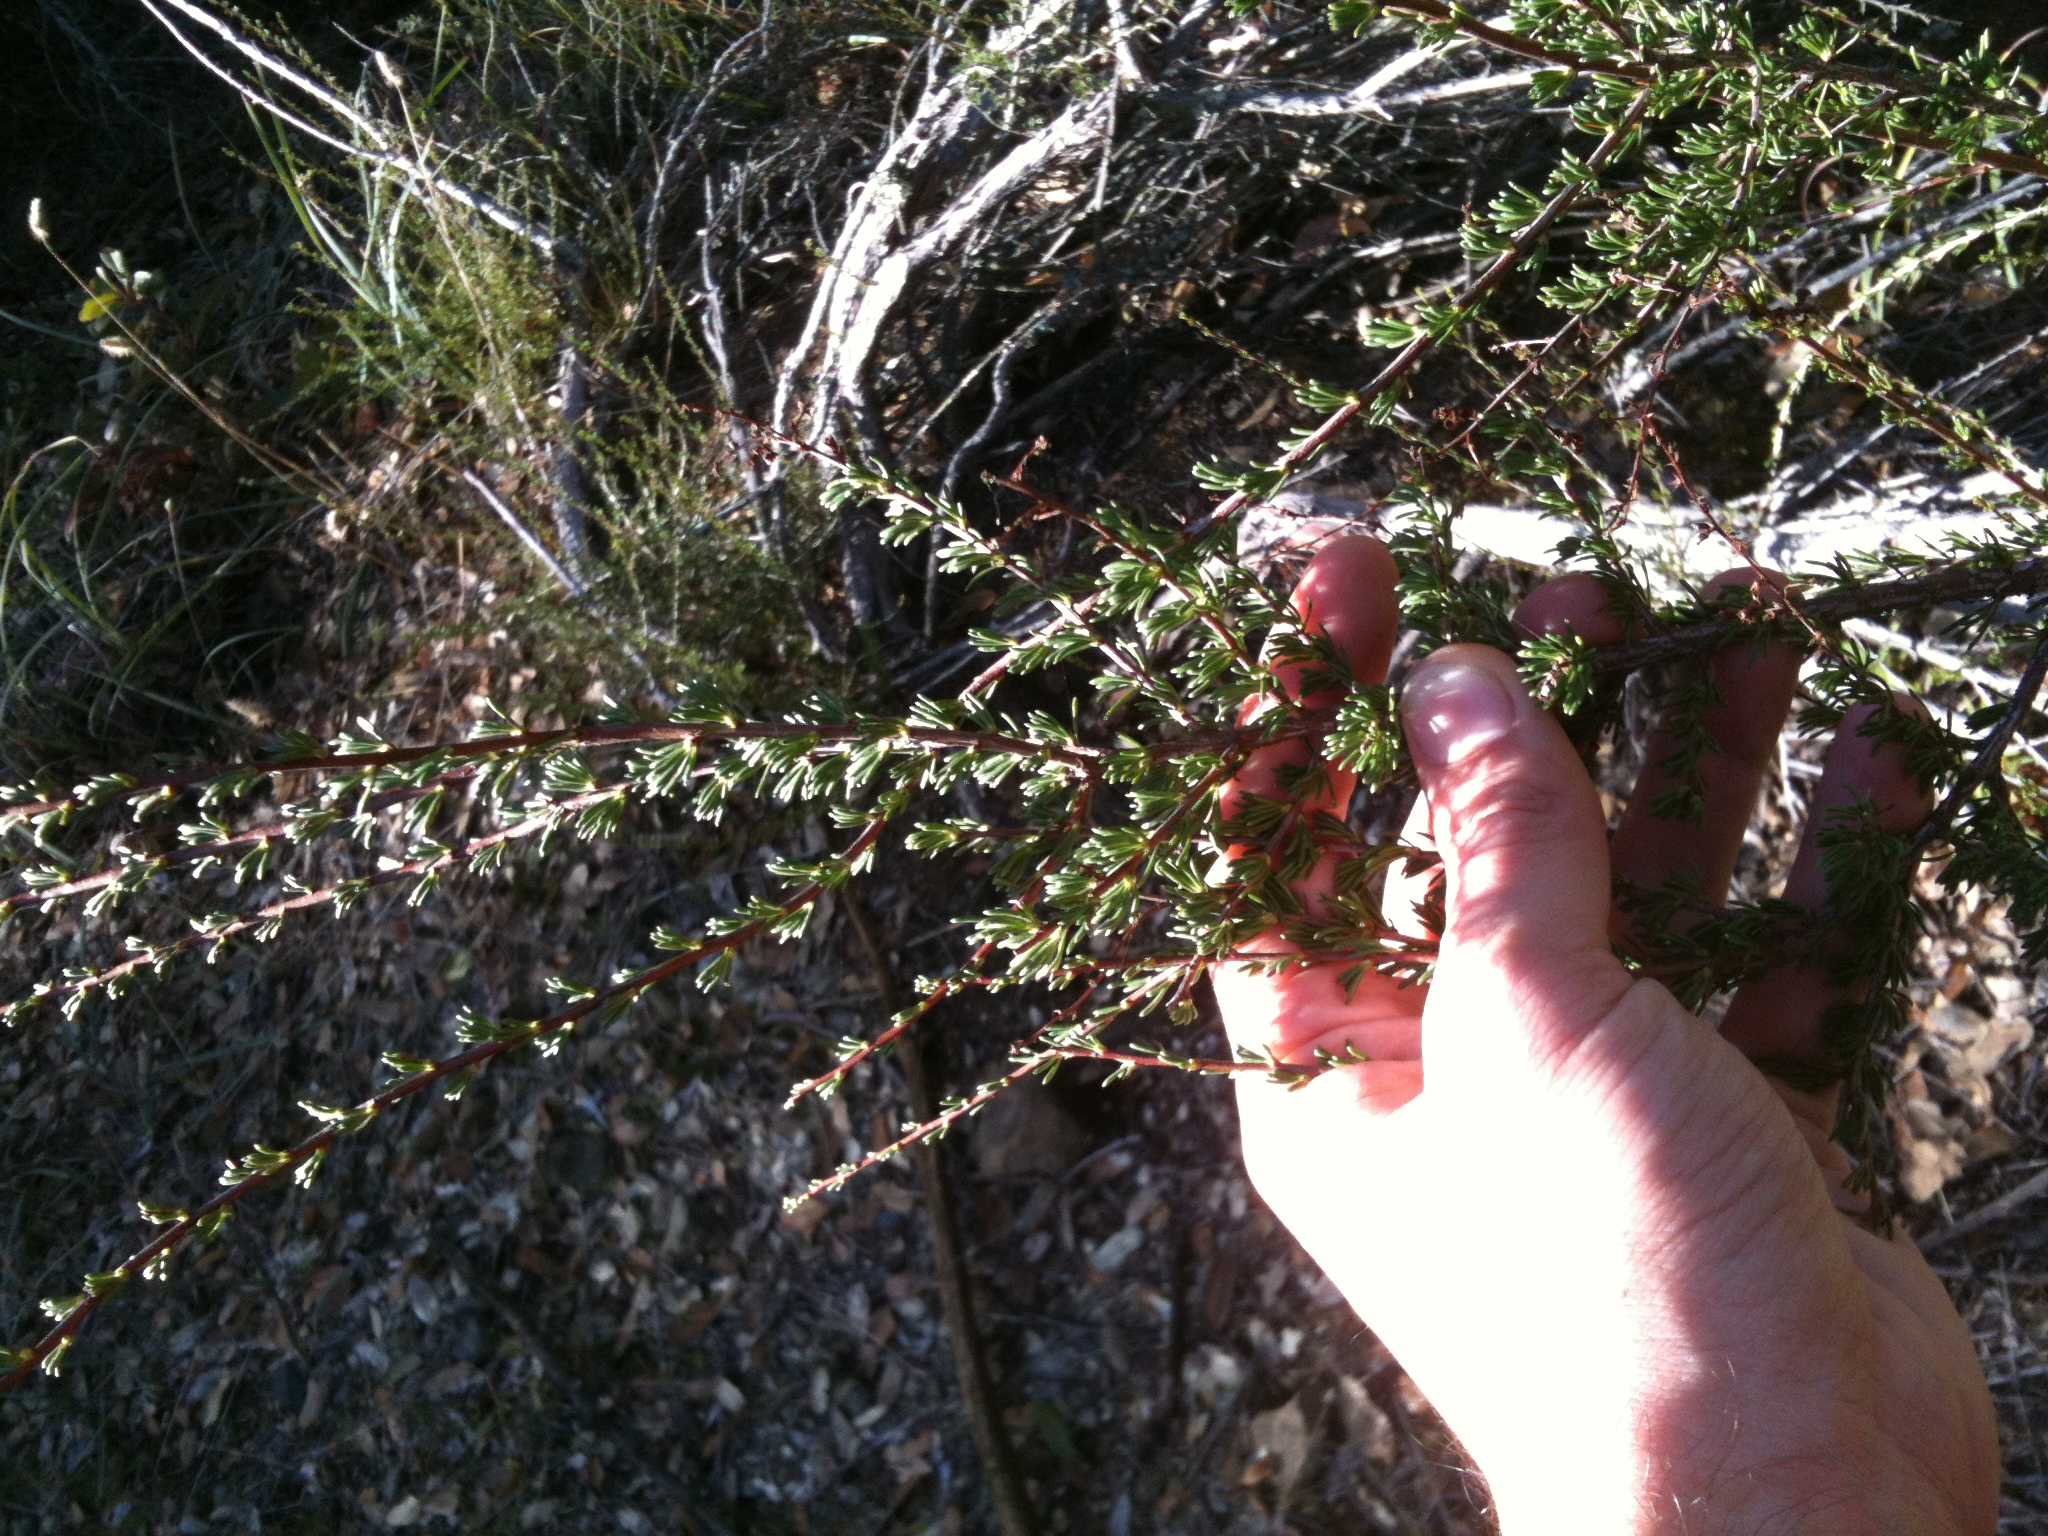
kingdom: Plantae
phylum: Tracheophyta
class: Magnoliopsida
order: Rosales
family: Rosaceae
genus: Adenostoma
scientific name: Adenostoma fasciculatum
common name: Chamise
